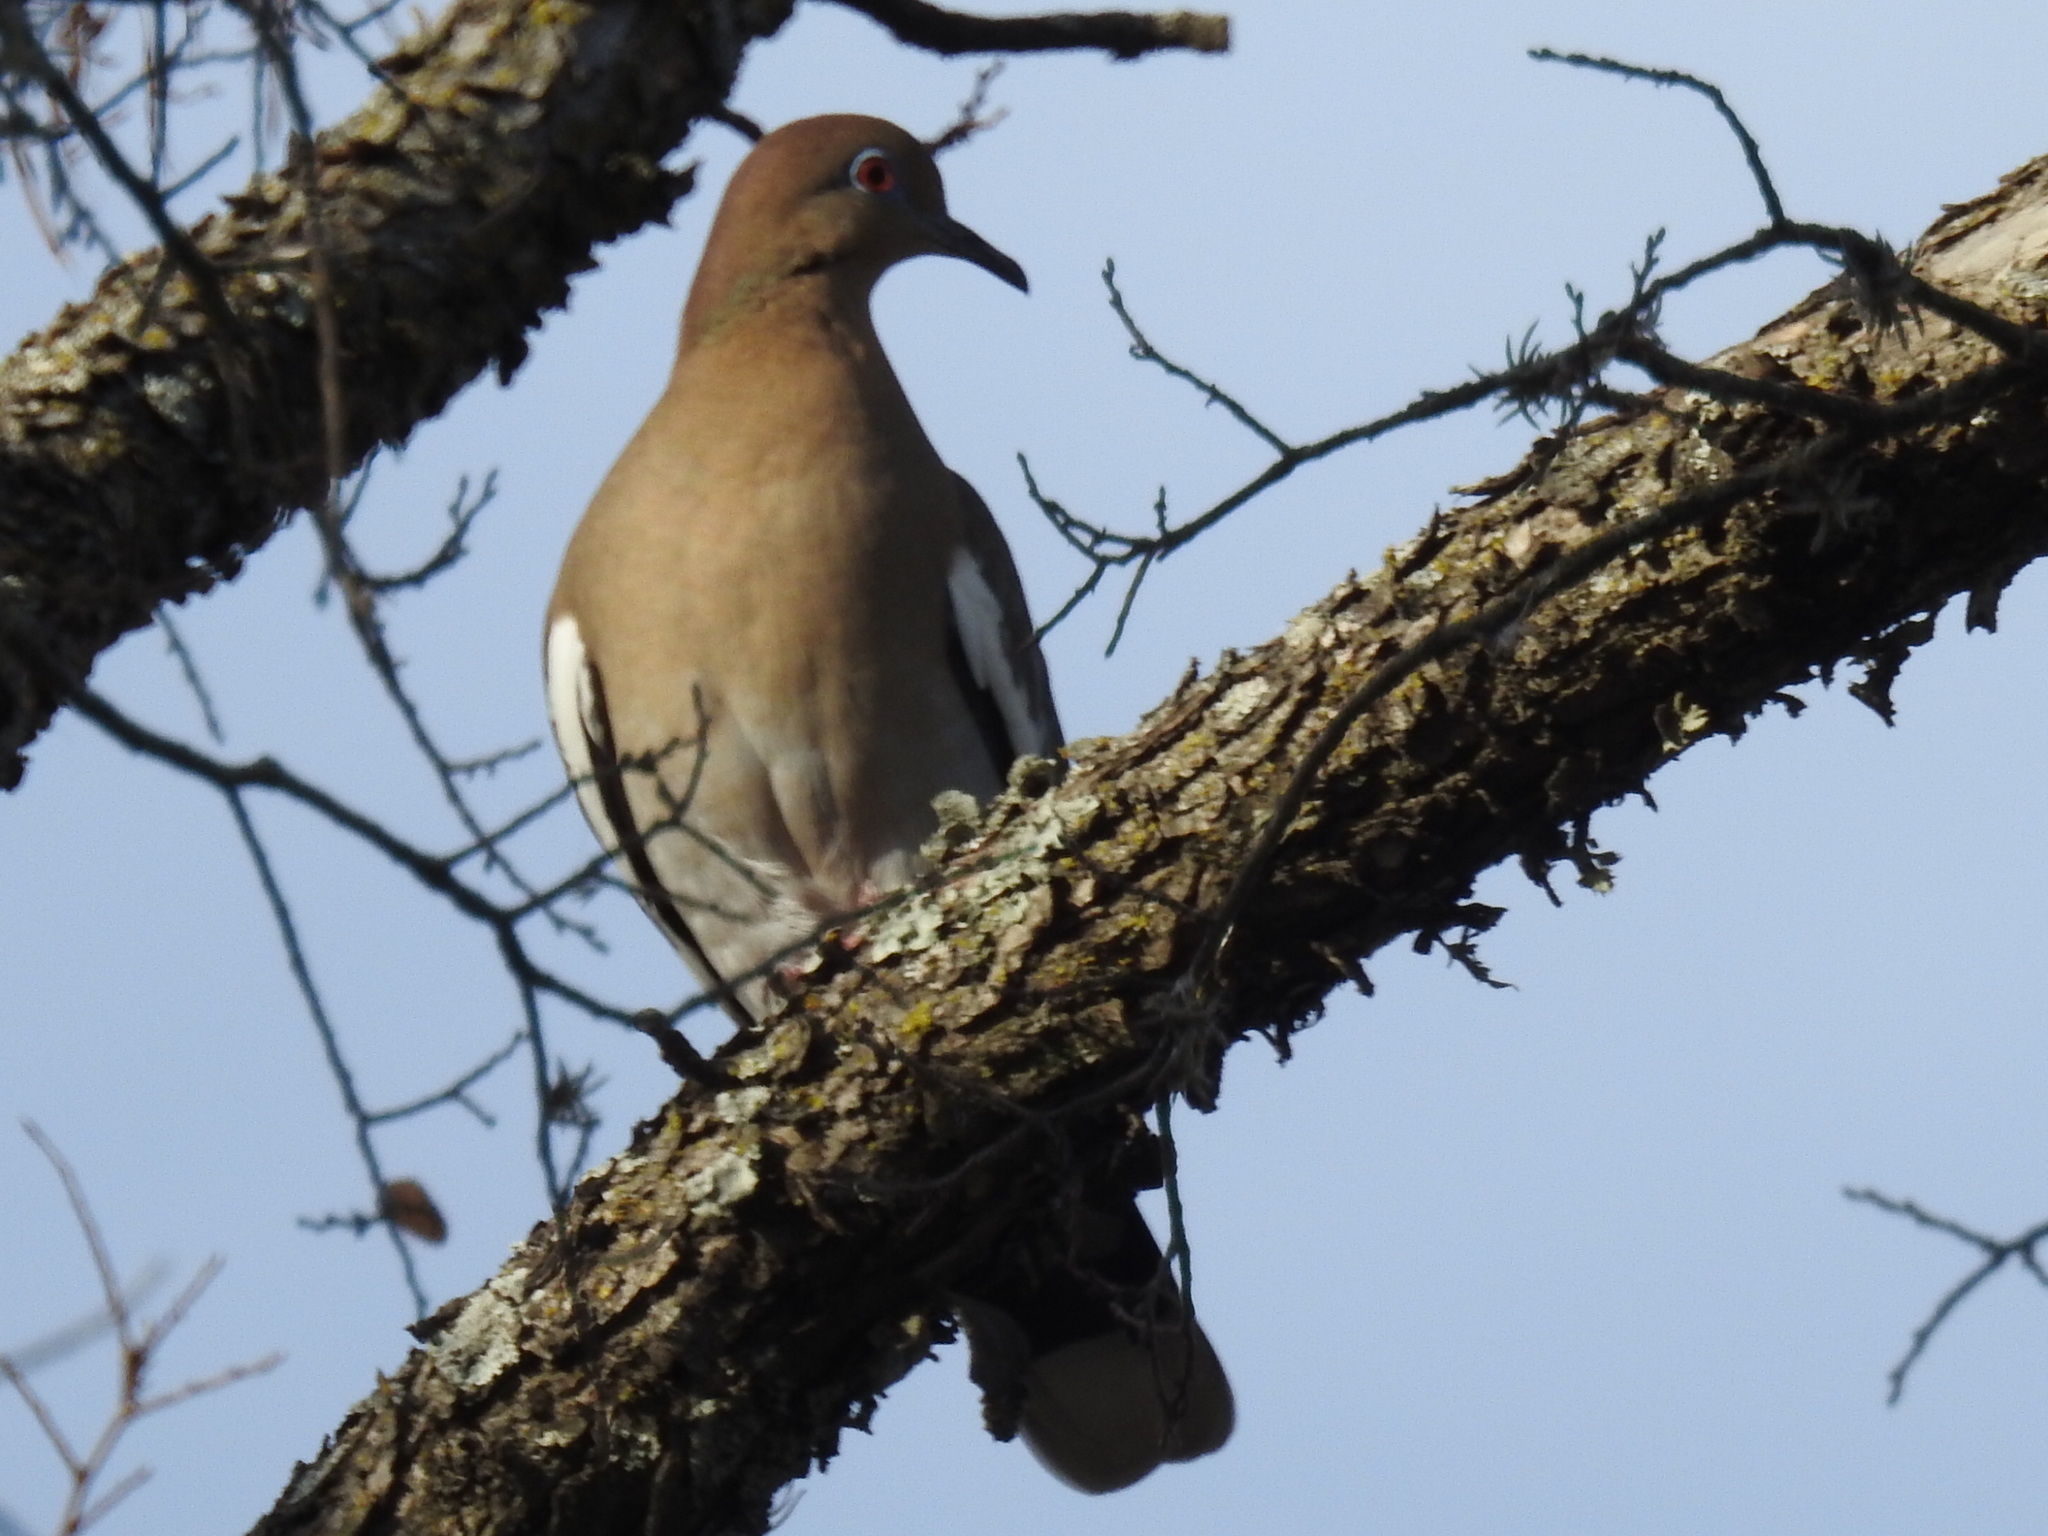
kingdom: Animalia
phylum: Chordata
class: Aves
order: Columbiformes
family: Columbidae
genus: Zenaida
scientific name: Zenaida asiatica
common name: White-winged dove
